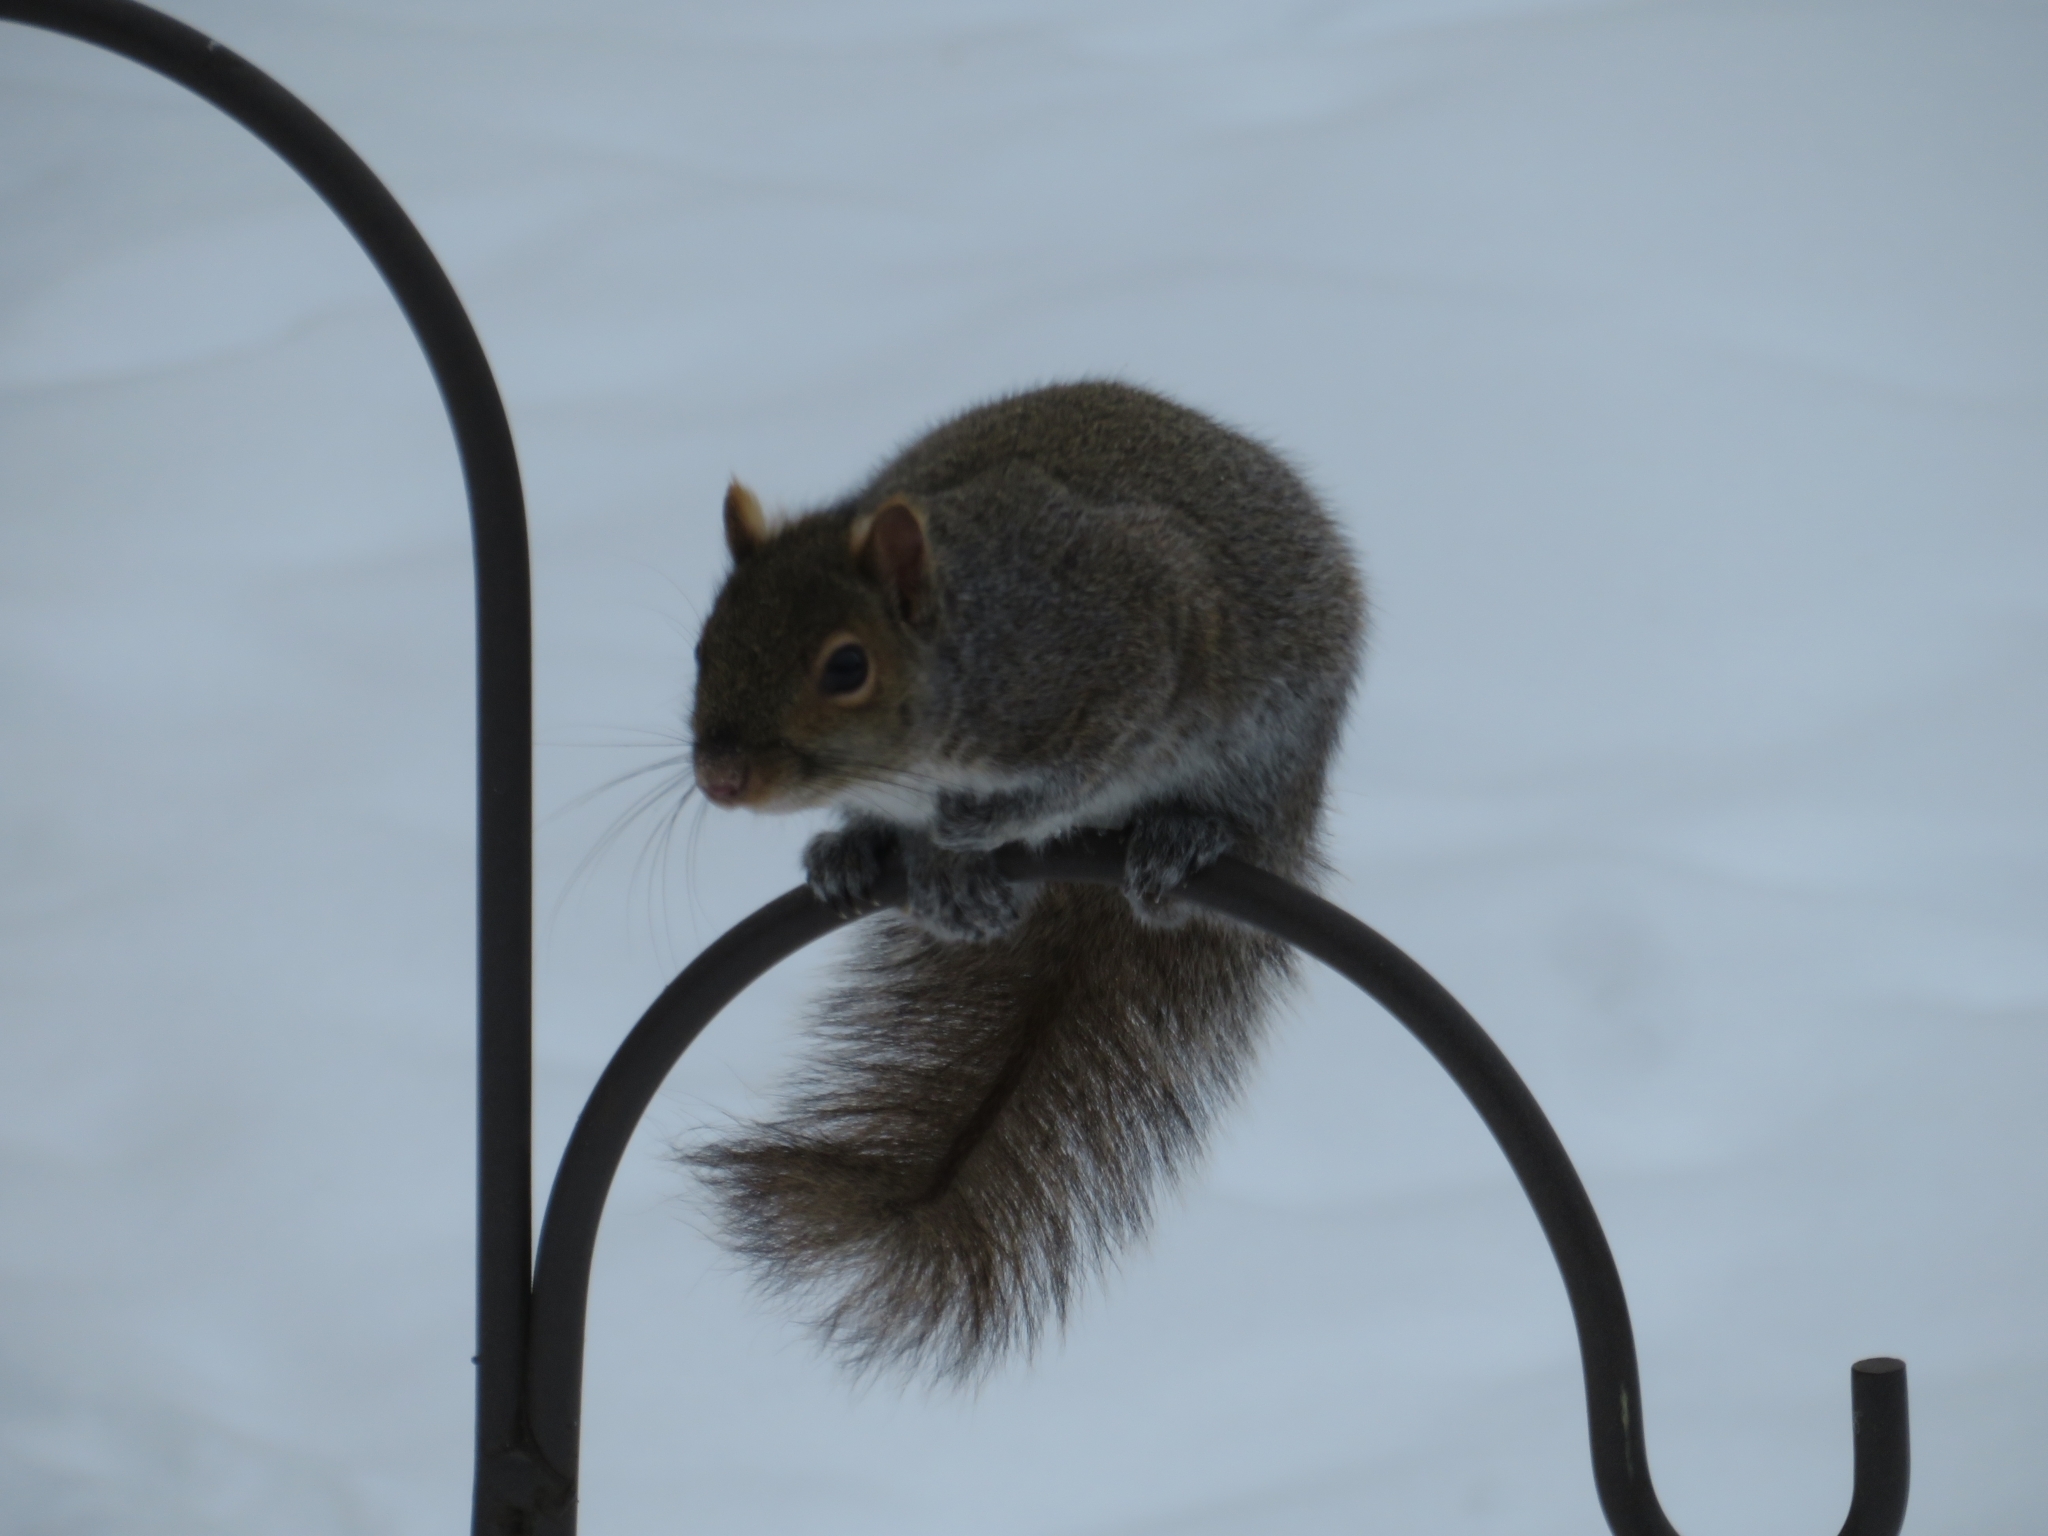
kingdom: Animalia
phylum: Chordata
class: Mammalia
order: Rodentia
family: Sciuridae
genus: Sciurus
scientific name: Sciurus carolinensis
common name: Eastern gray squirrel
